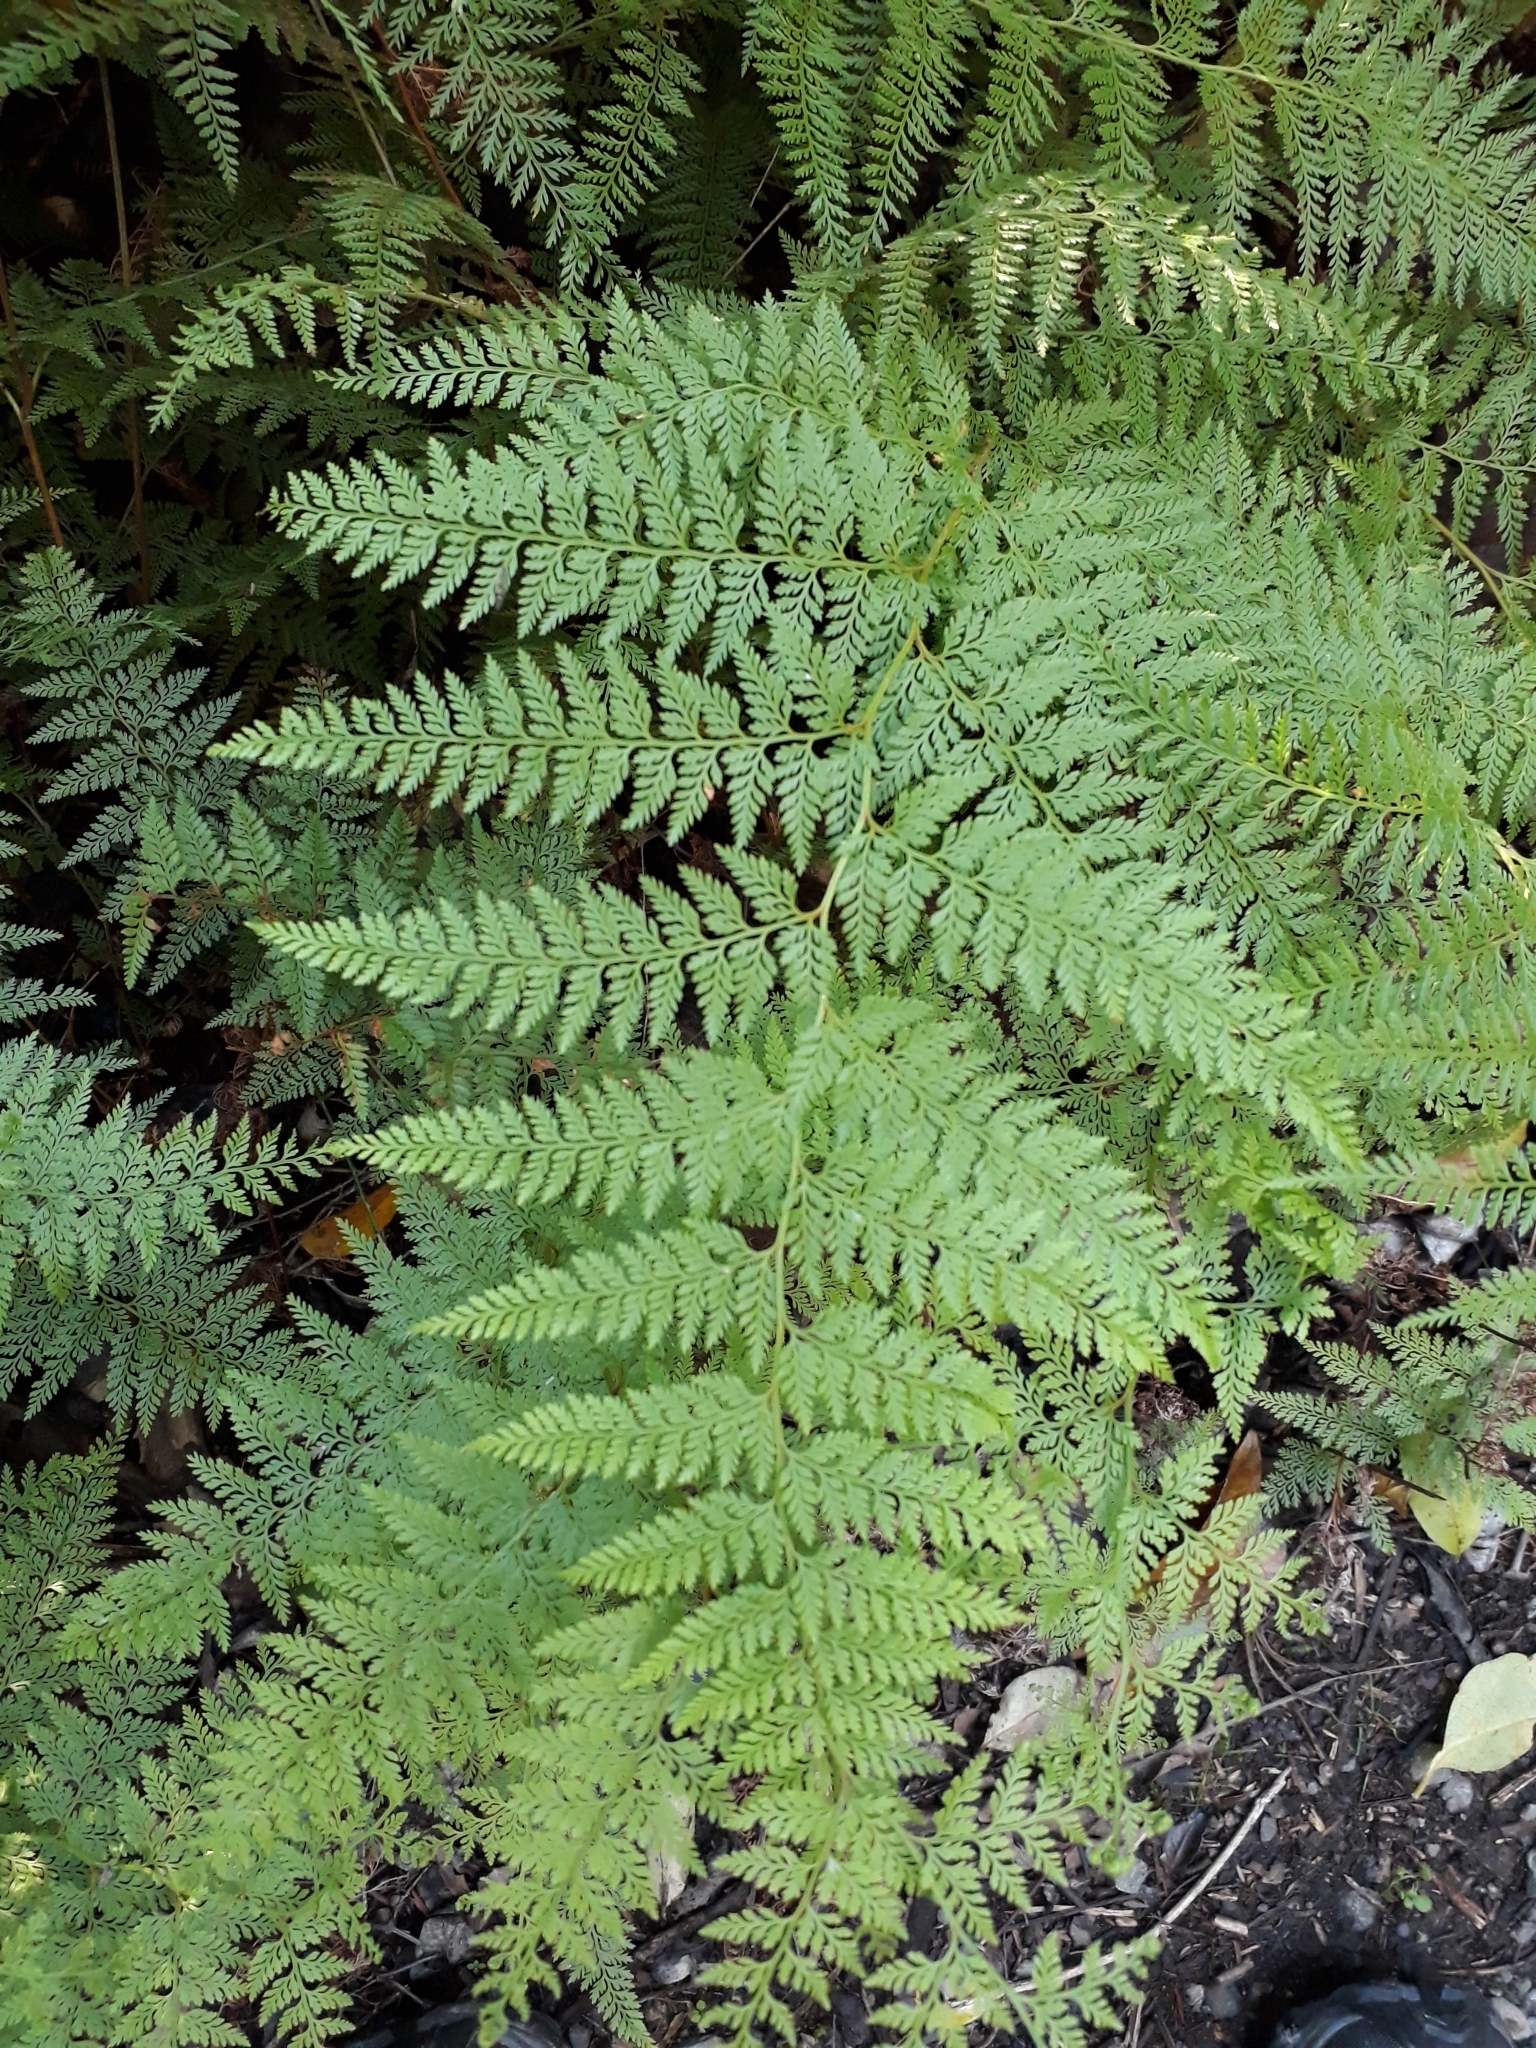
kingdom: Plantae
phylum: Tracheophyta
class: Polypodiopsida
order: Polypodiales
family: Dennstaedtiaceae
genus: Paesia
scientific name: Paesia scaberula
